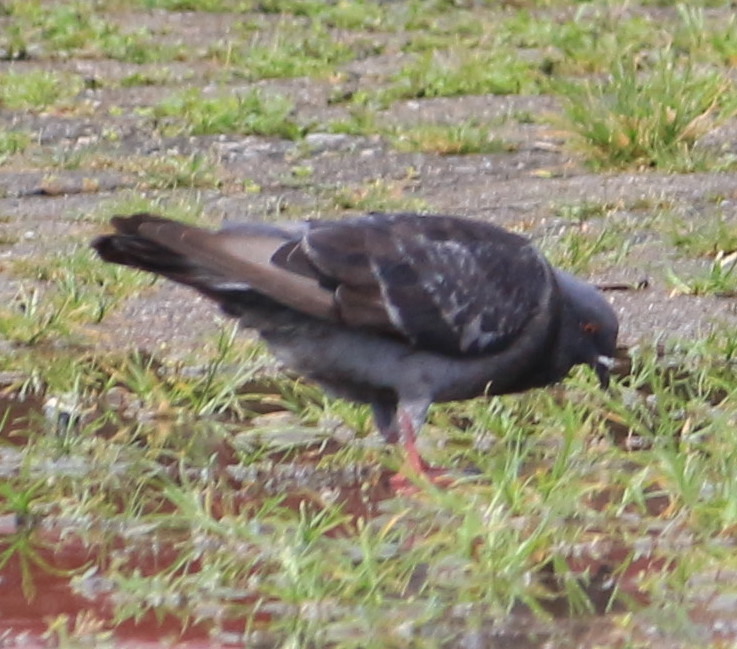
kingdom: Animalia
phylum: Chordata
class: Aves
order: Columbiformes
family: Columbidae
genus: Columba
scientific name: Columba livia
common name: Rock pigeon
